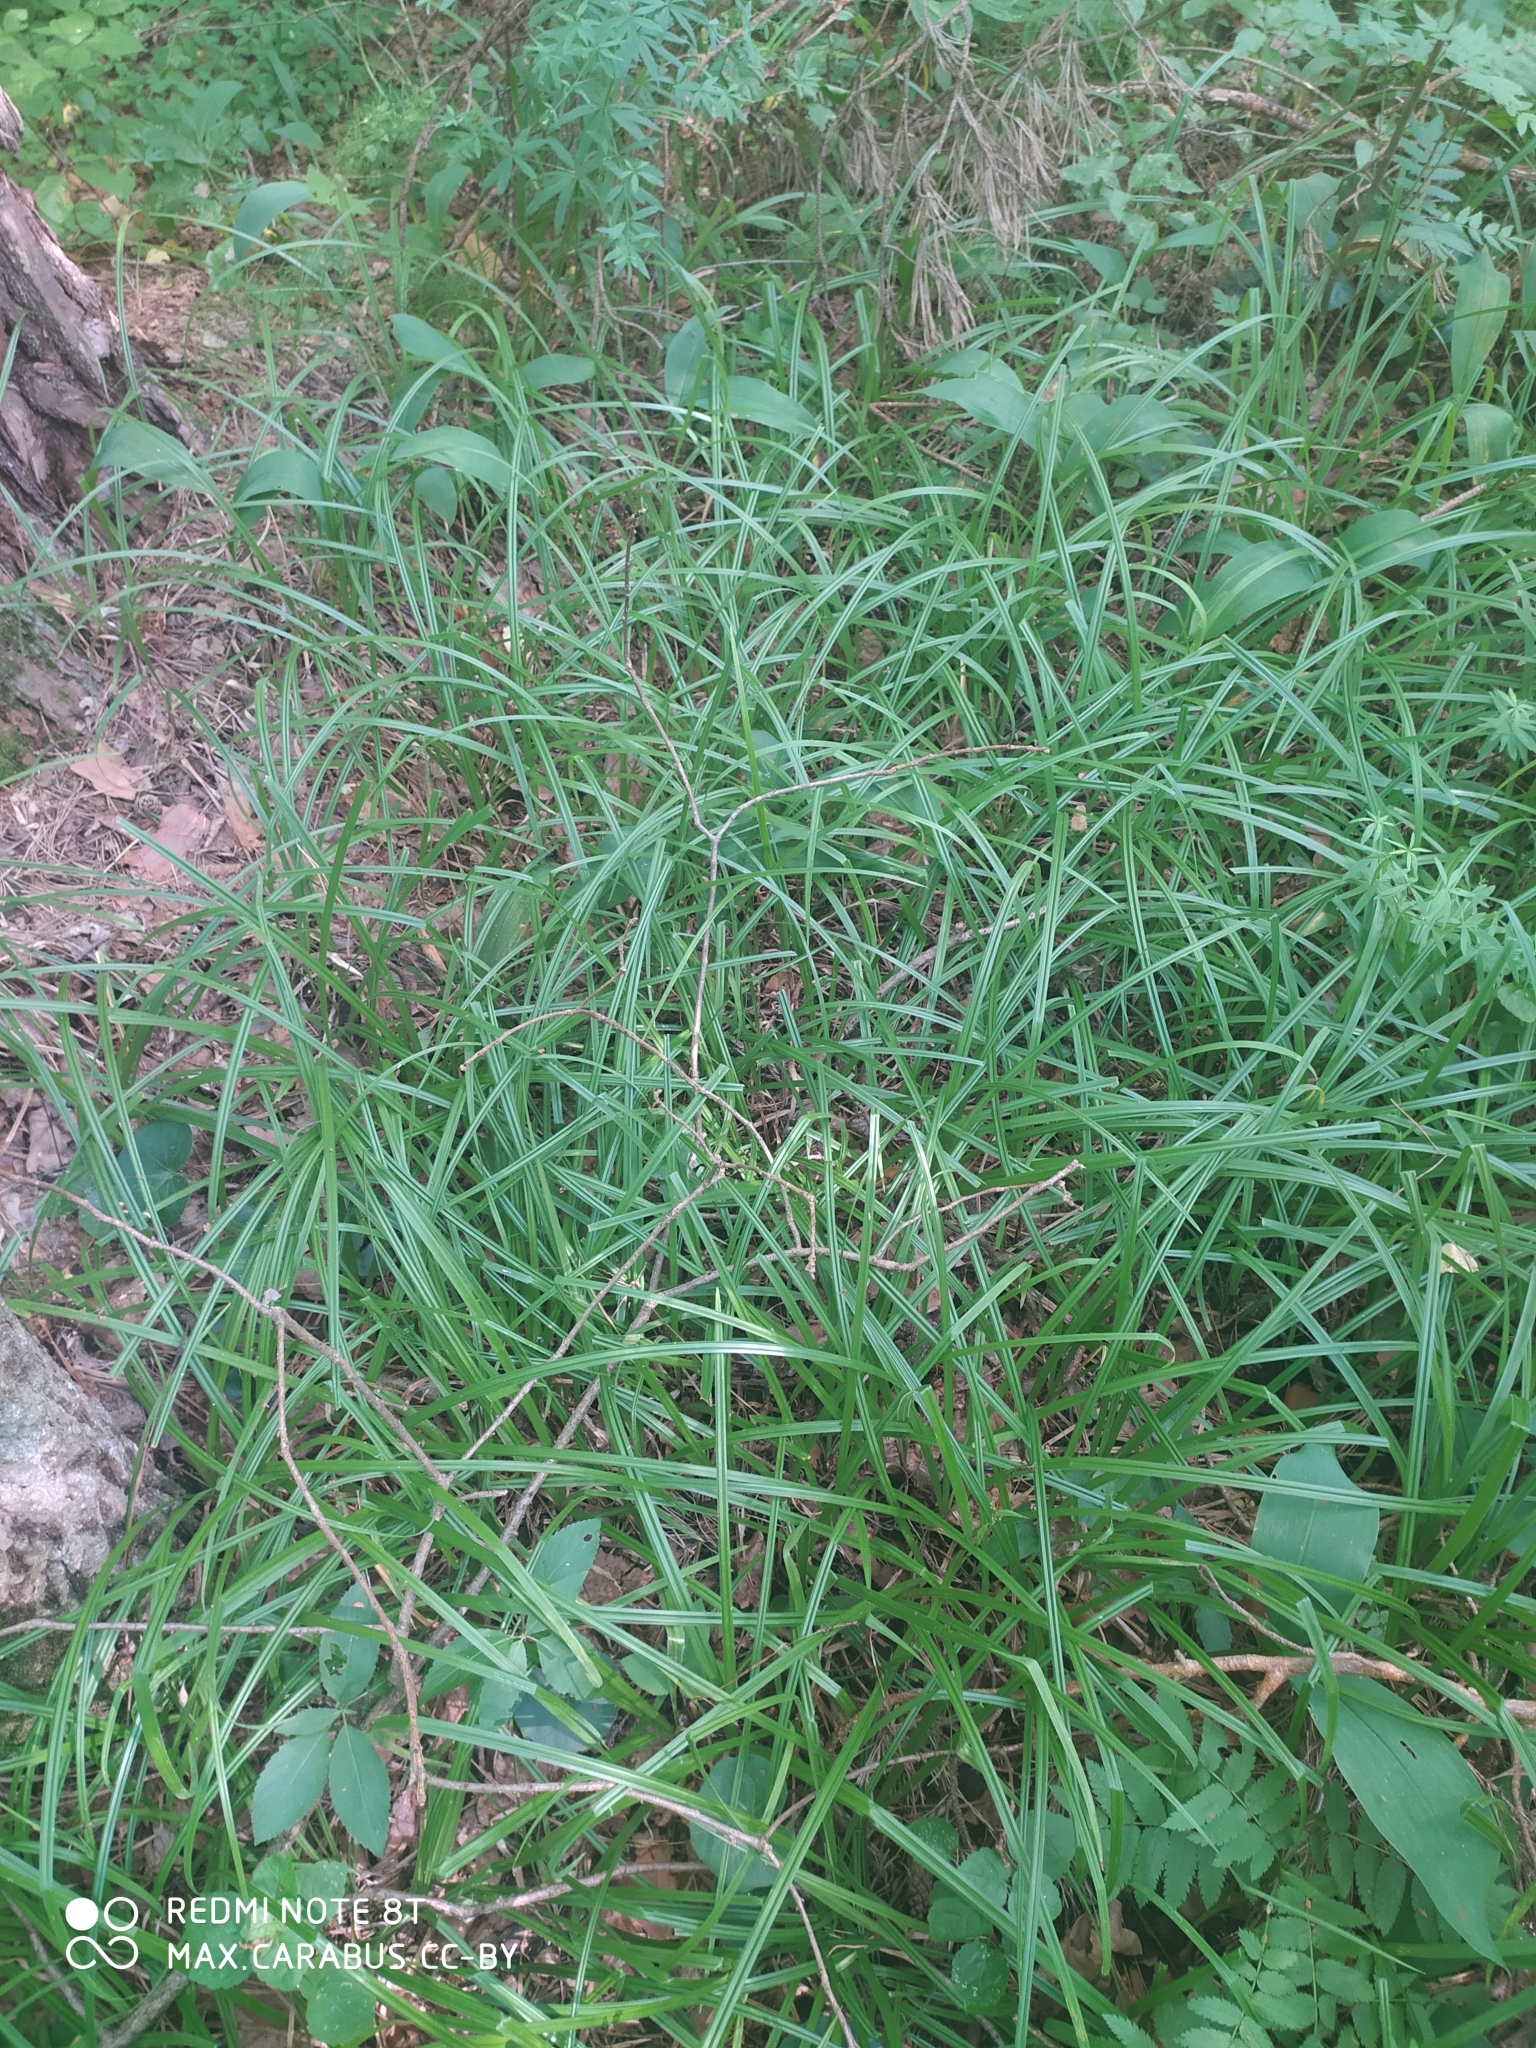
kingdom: Plantae
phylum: Tracheophyta
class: Liliopsida
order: Poales
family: Cyperaceae
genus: Carex
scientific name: Carex pilosa
